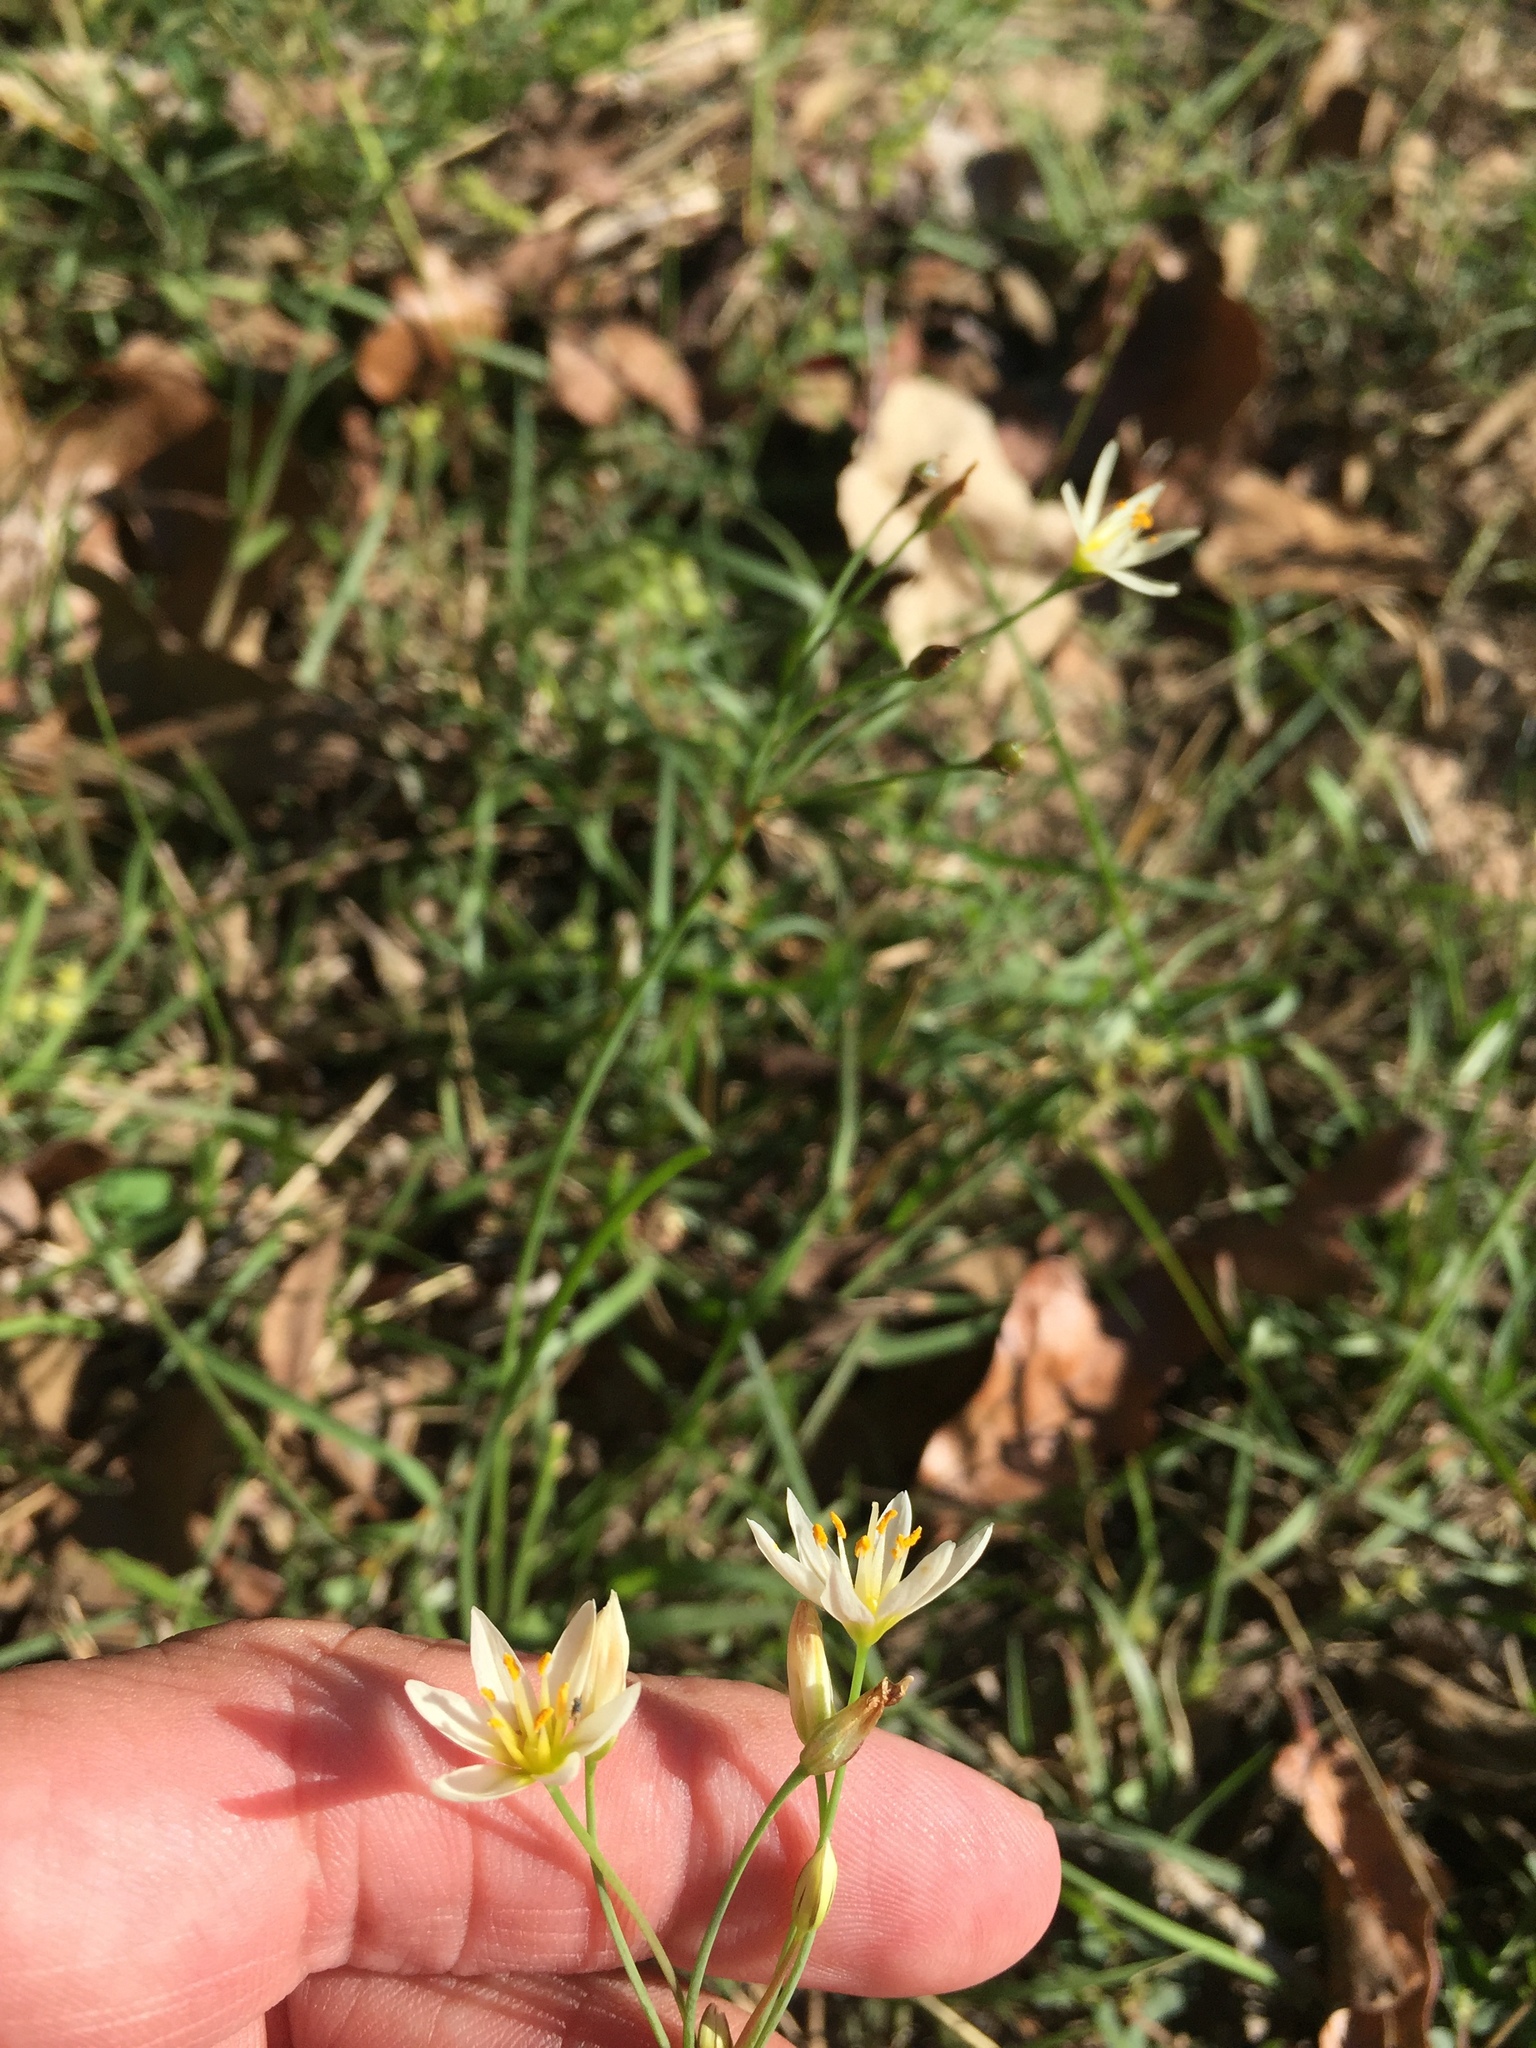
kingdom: Plantae
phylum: Tracheophyta
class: Liliopsida
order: Asparagales
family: Amaryllidaceae
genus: Nothoscordum
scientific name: Nothoscordum bivalve
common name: Crow-poison
